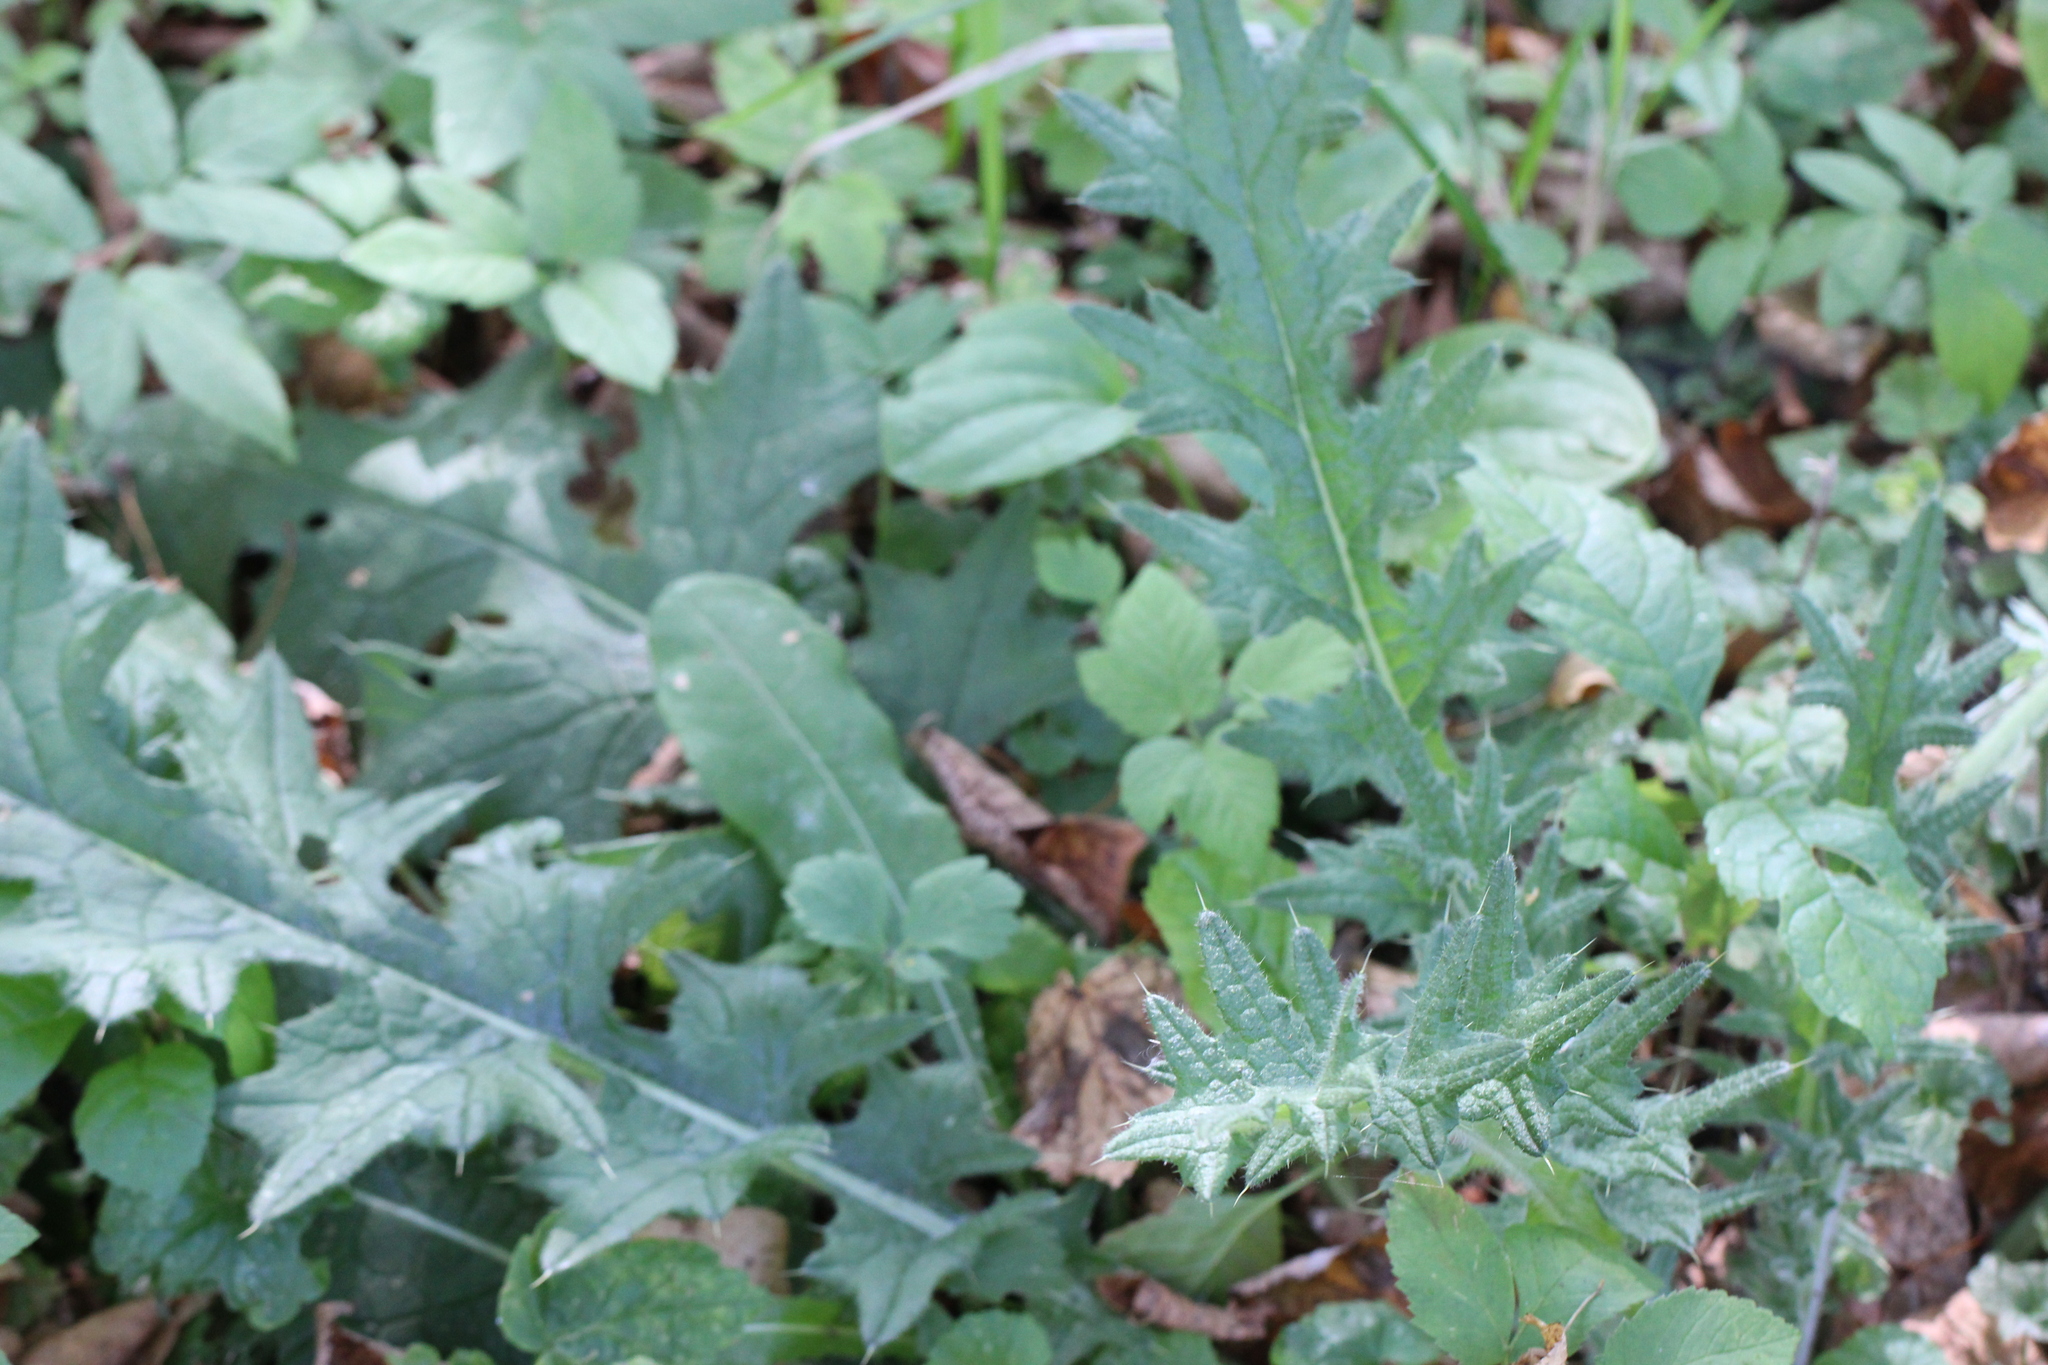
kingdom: Plantae
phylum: Tracheophyta
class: Magnoliopsida
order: Asterales
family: Asteraceae
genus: Cirsium
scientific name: Cirsium vulgare
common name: Bull thistle
